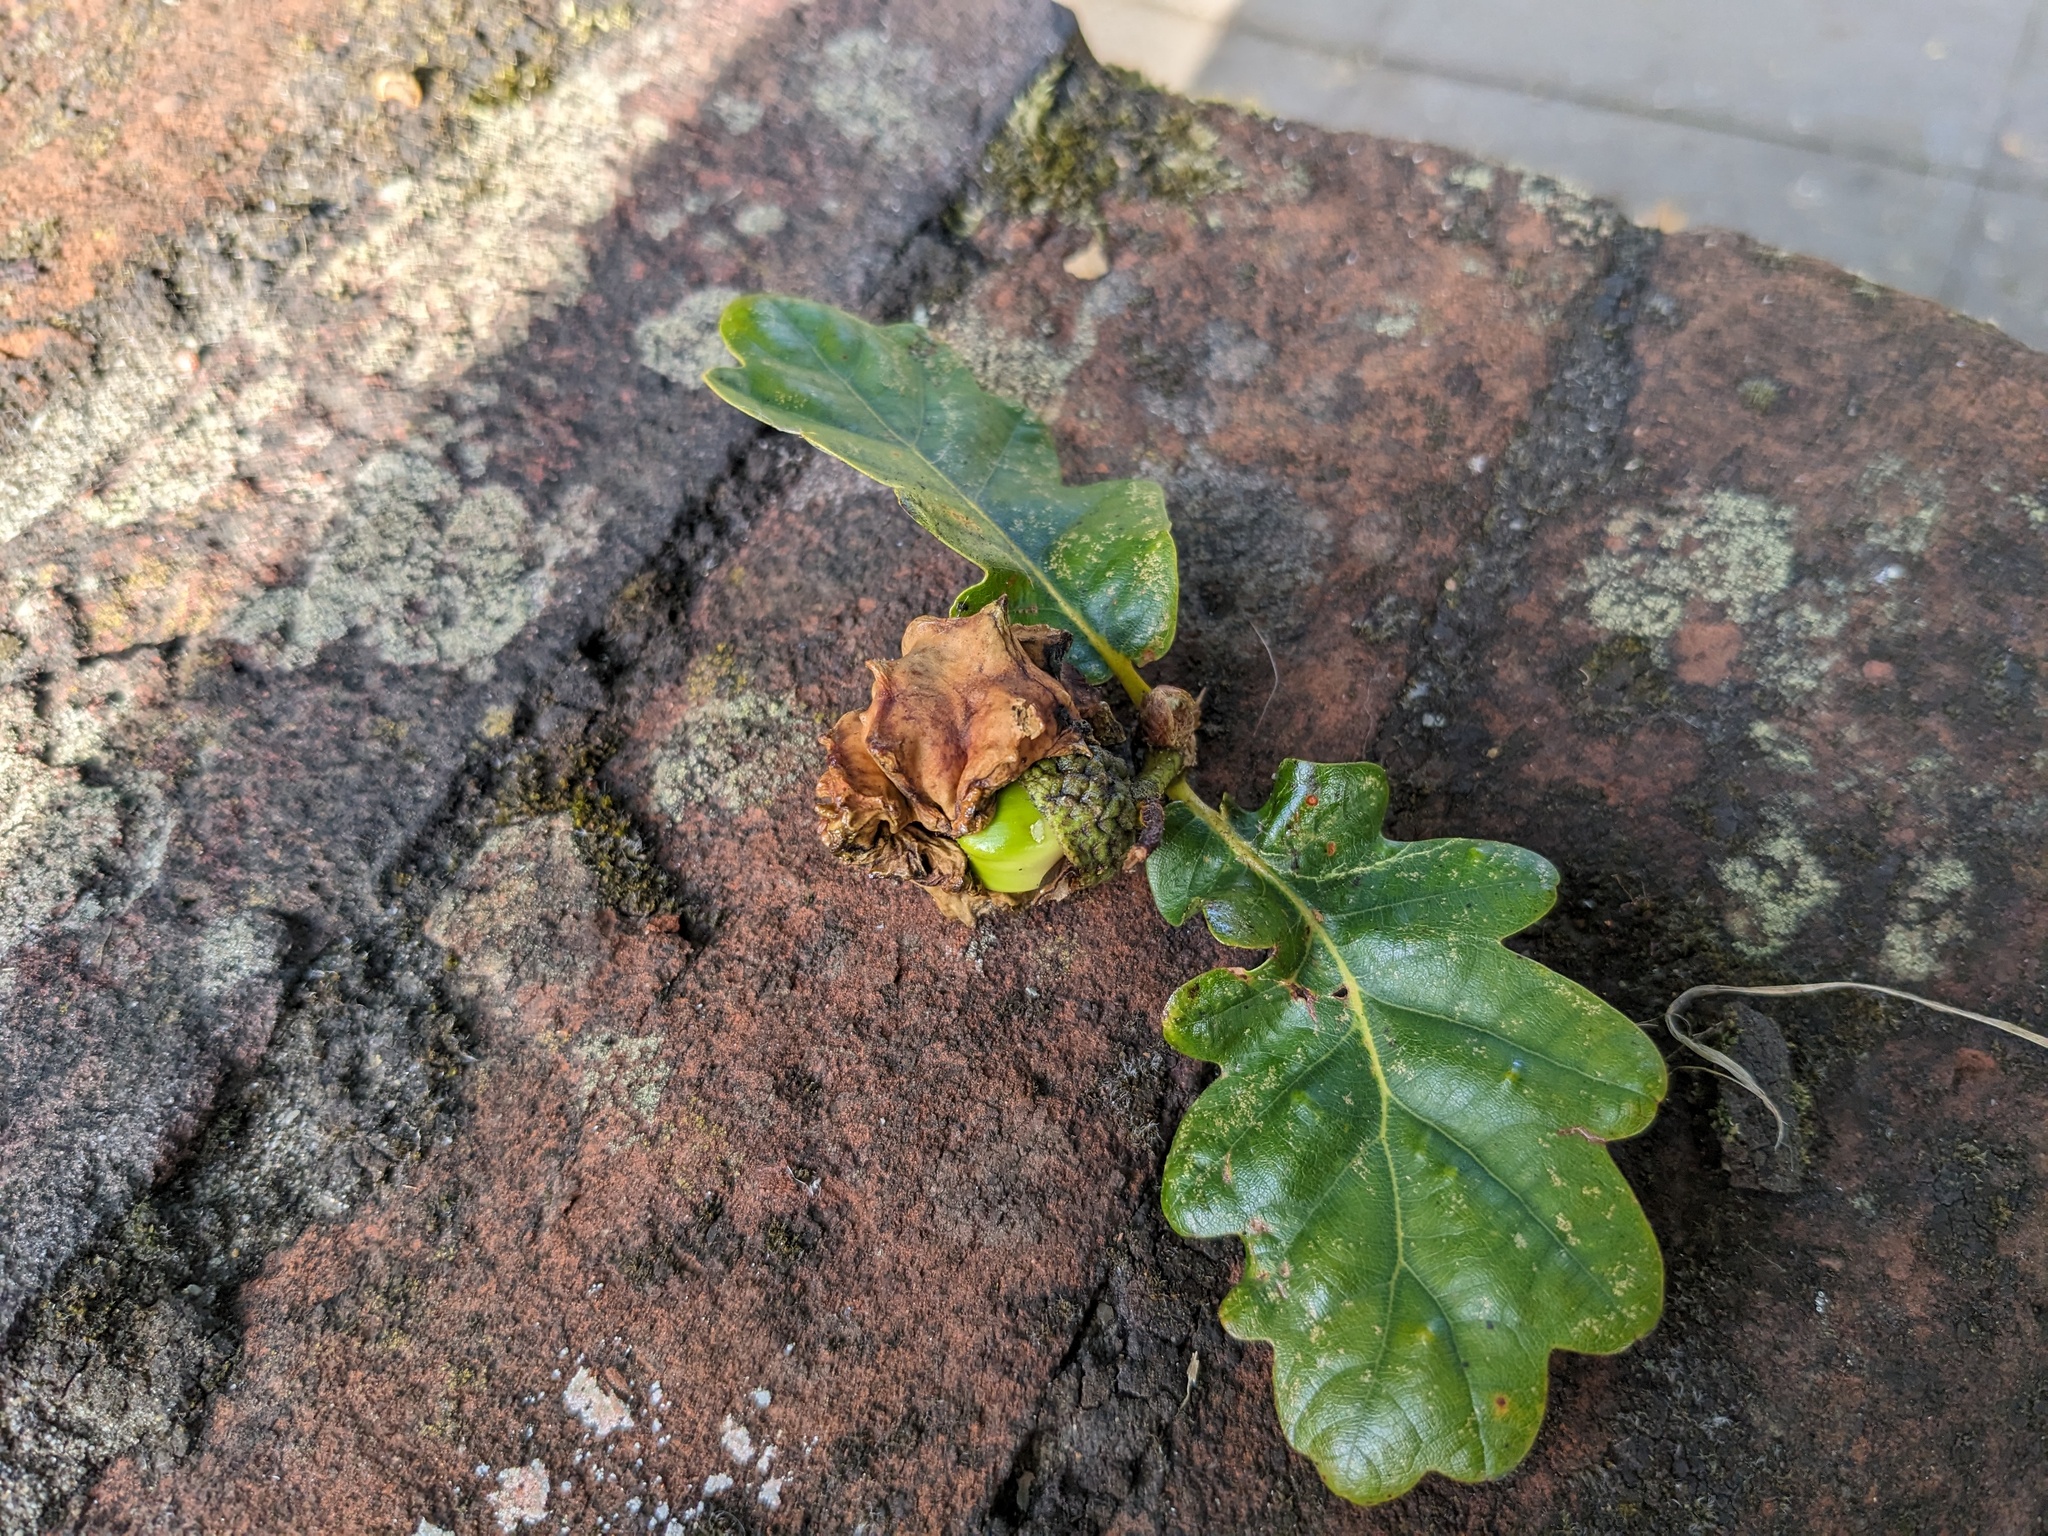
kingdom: Animalia
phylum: Arthropoda
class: Insecta
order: Hymenoptera
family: Cynipidae
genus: Andricus
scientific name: Andricus quercuscalicis
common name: Knopper gall
